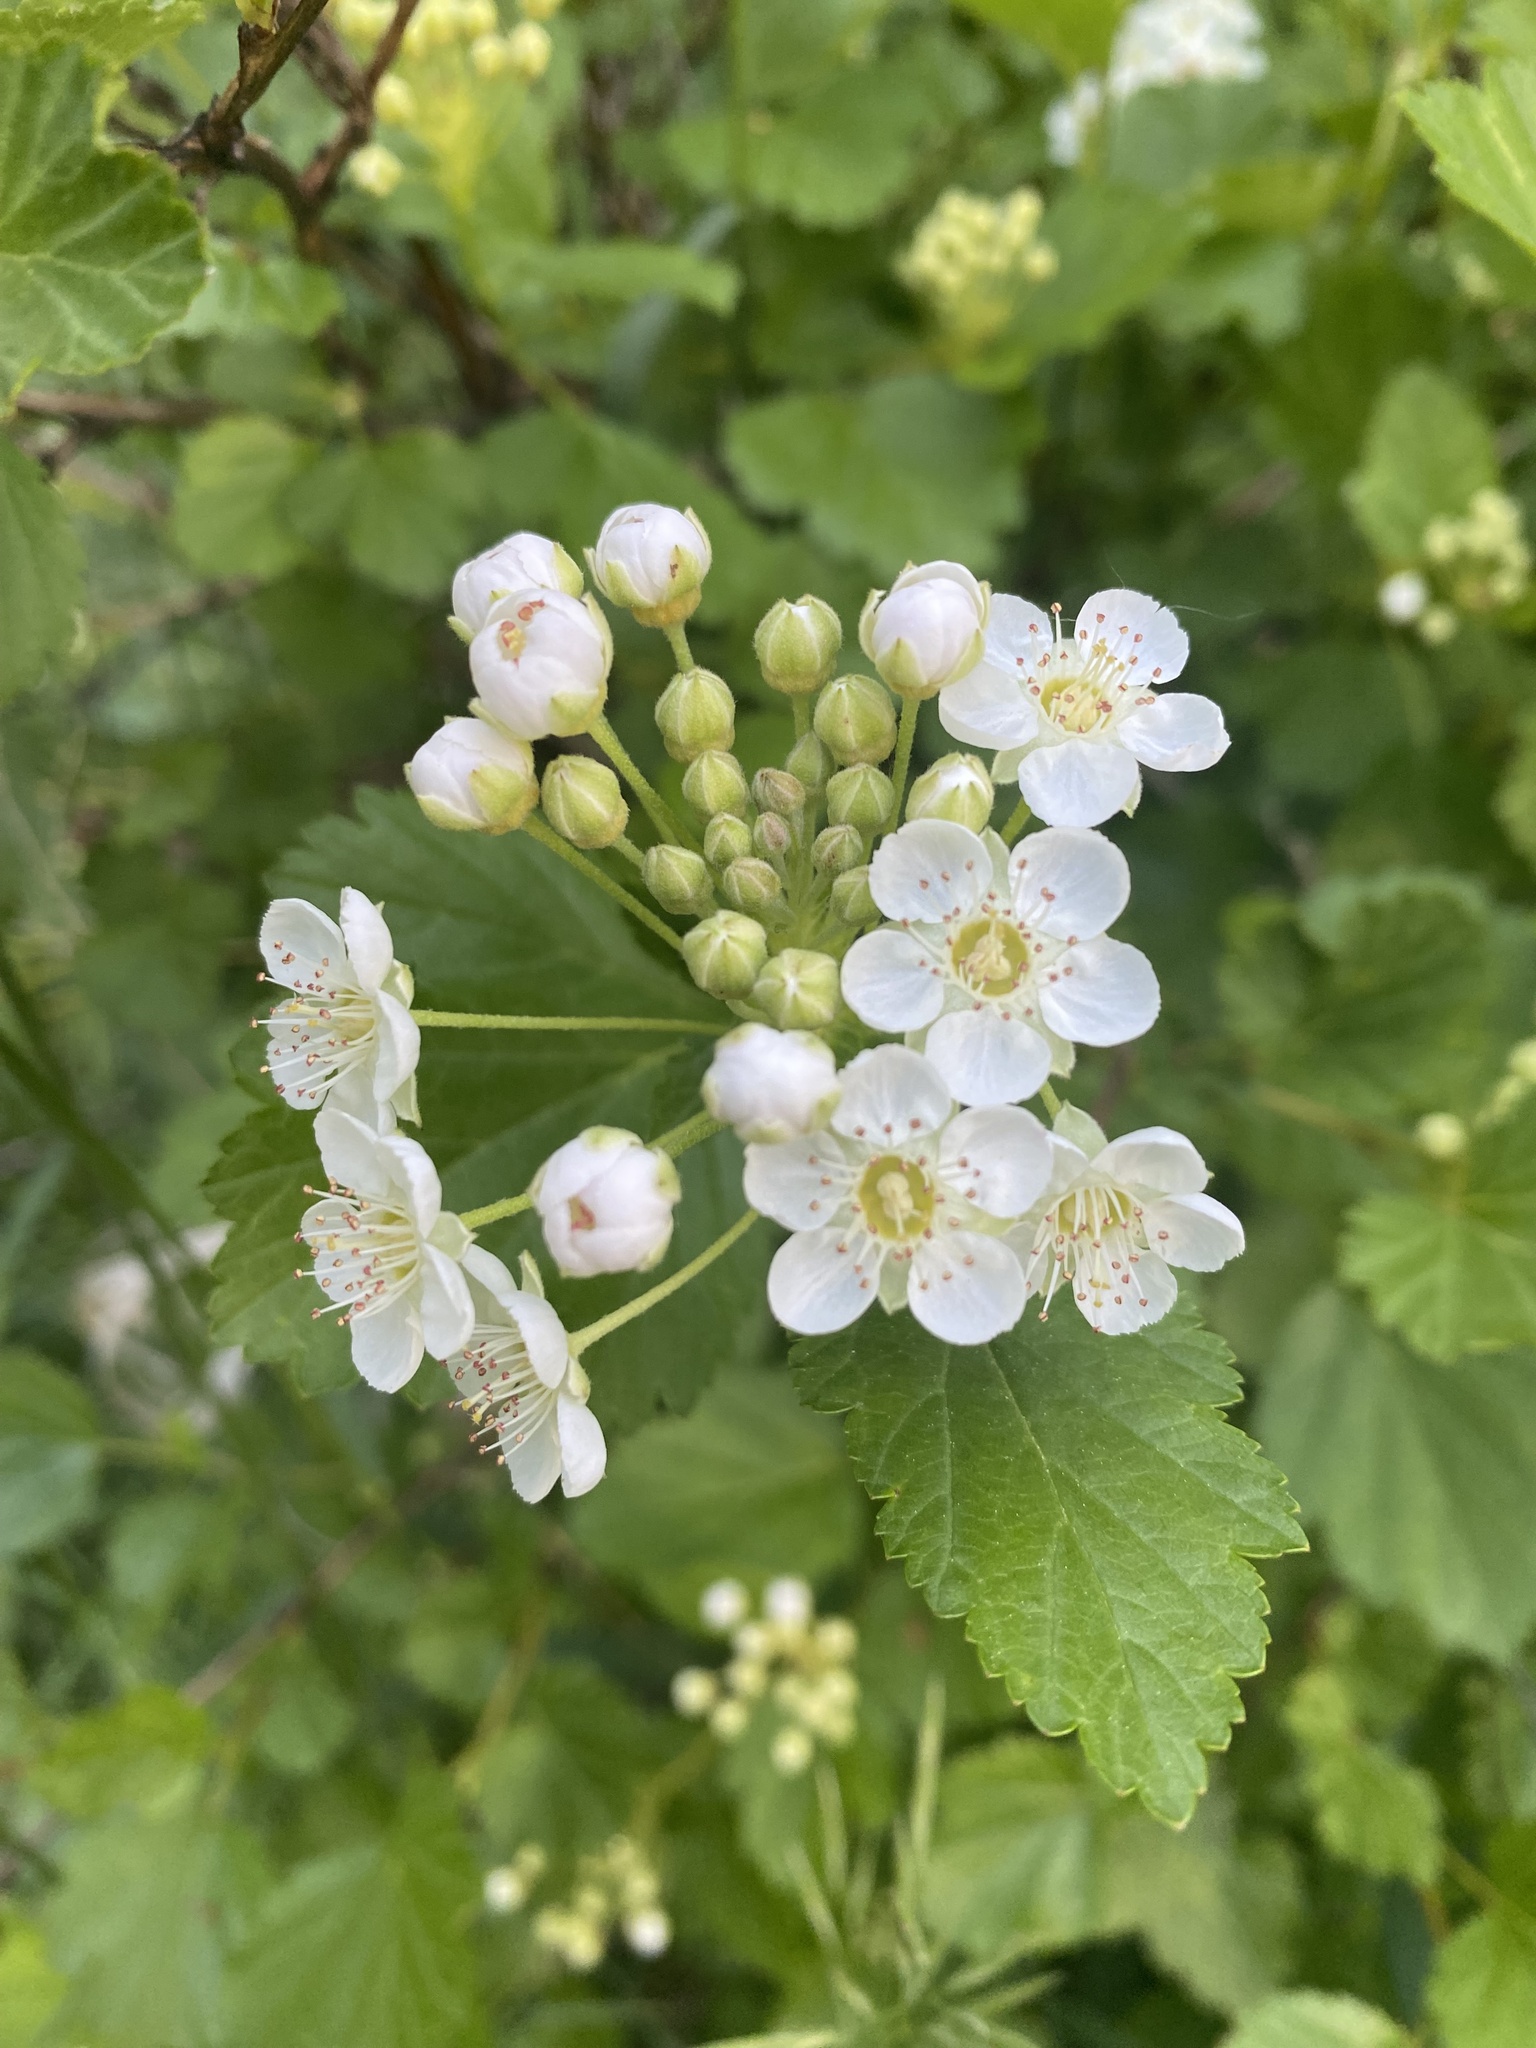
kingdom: Plantae
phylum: Tracheophyta
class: Magnoliopsida
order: Rosales
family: Rosaceae
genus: Physocarpus
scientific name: Physocarpus monogynus
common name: Mountain ninebark
